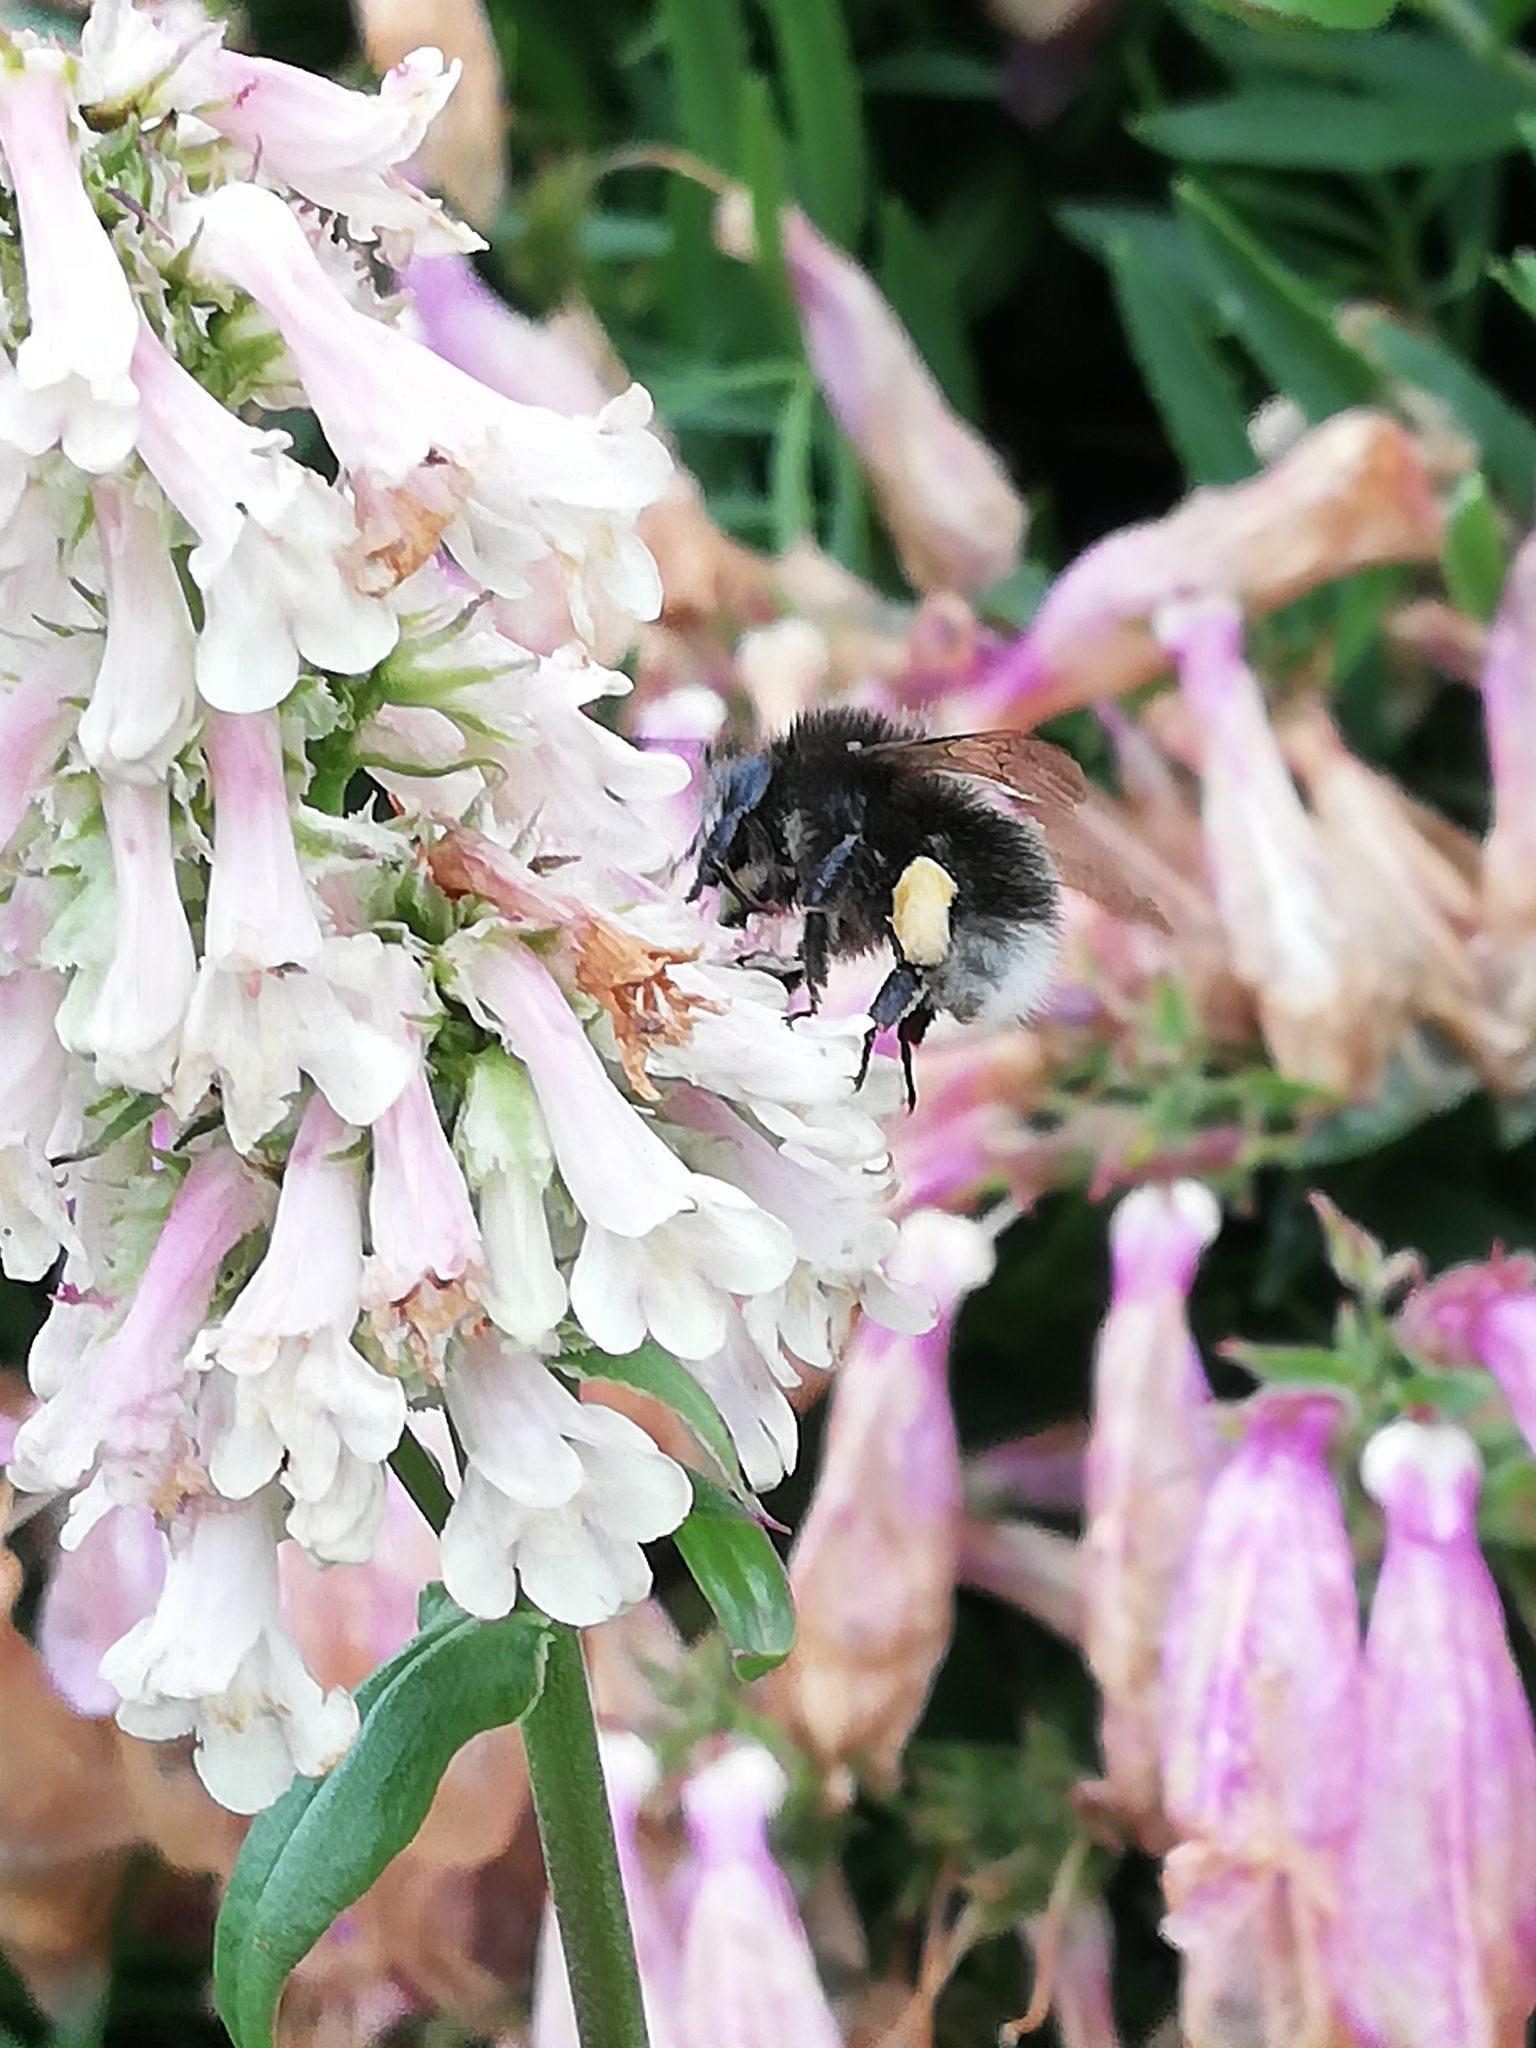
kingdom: Animalia
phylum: Arthropoda
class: Insecta
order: Hymenoptera
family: Apidae
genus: Bombus
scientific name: Bombus hypnorum
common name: New garden bumblebee
